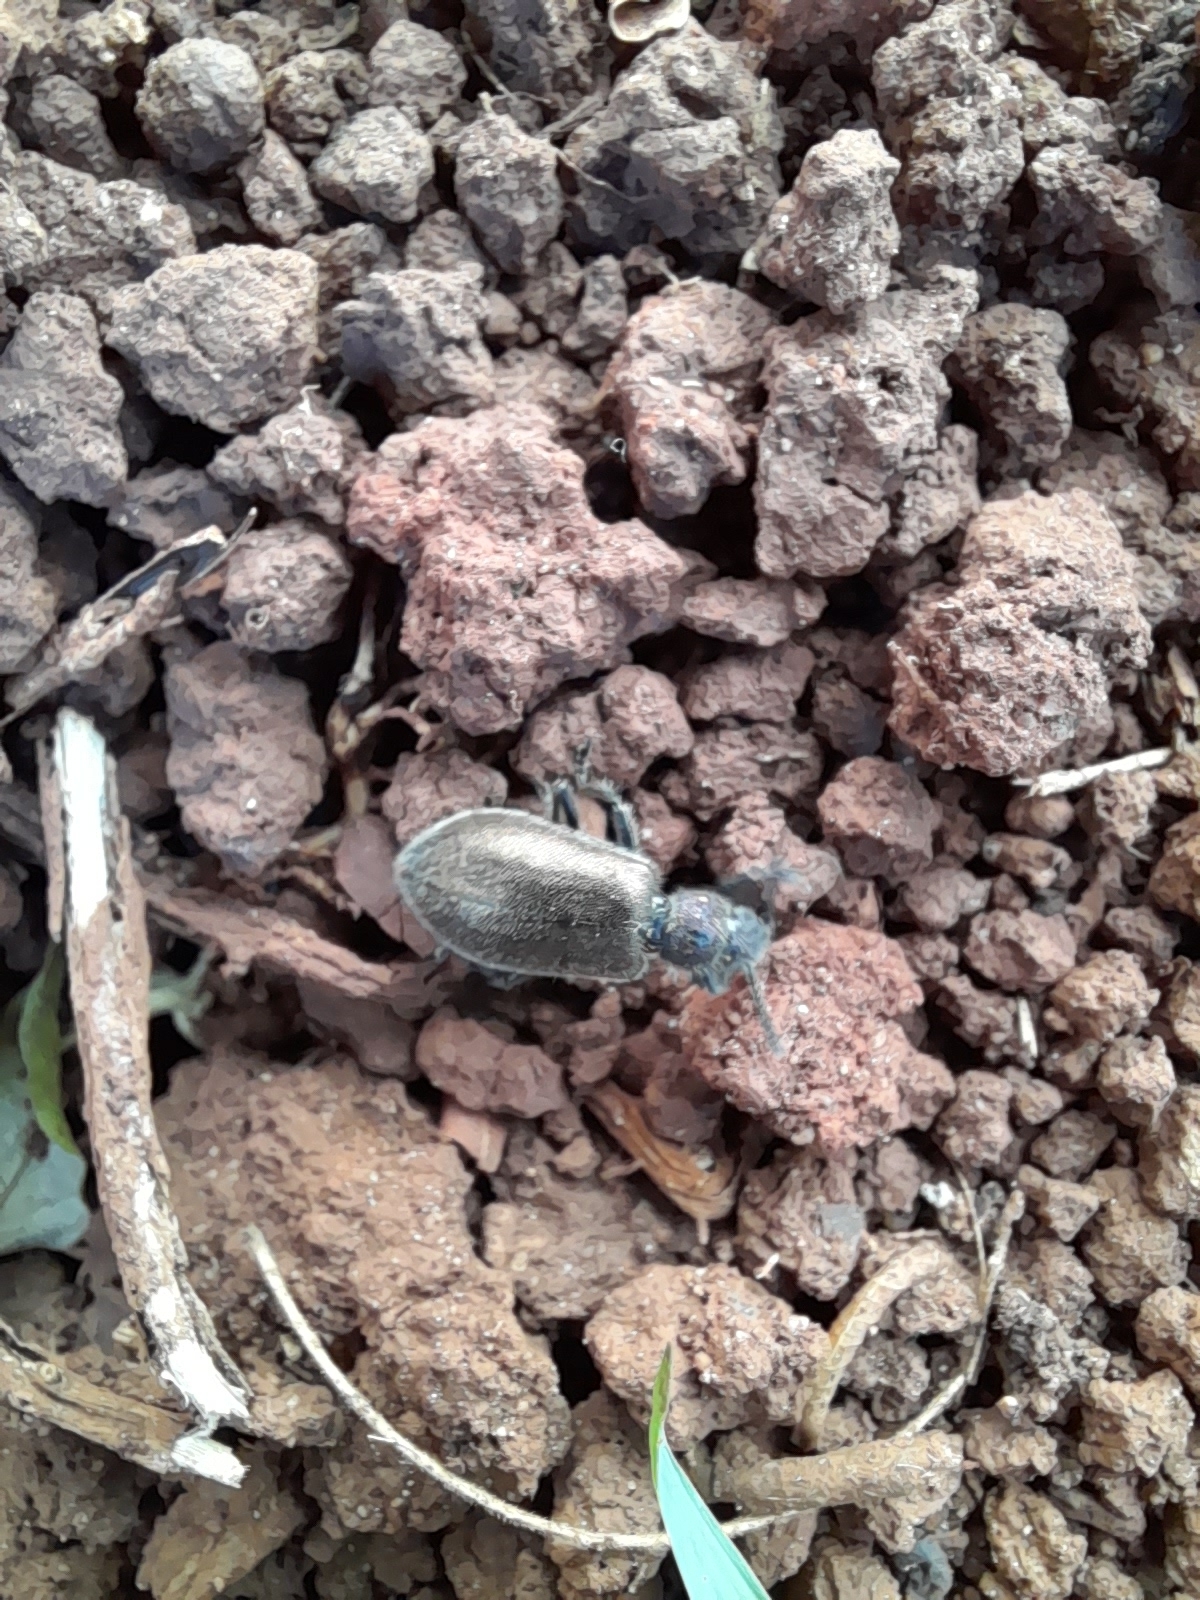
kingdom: Animalia
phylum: Arthropoda
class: Insecta
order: Coleoptera
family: Tenebrionidae
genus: Lagria
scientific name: Lagria villosa
